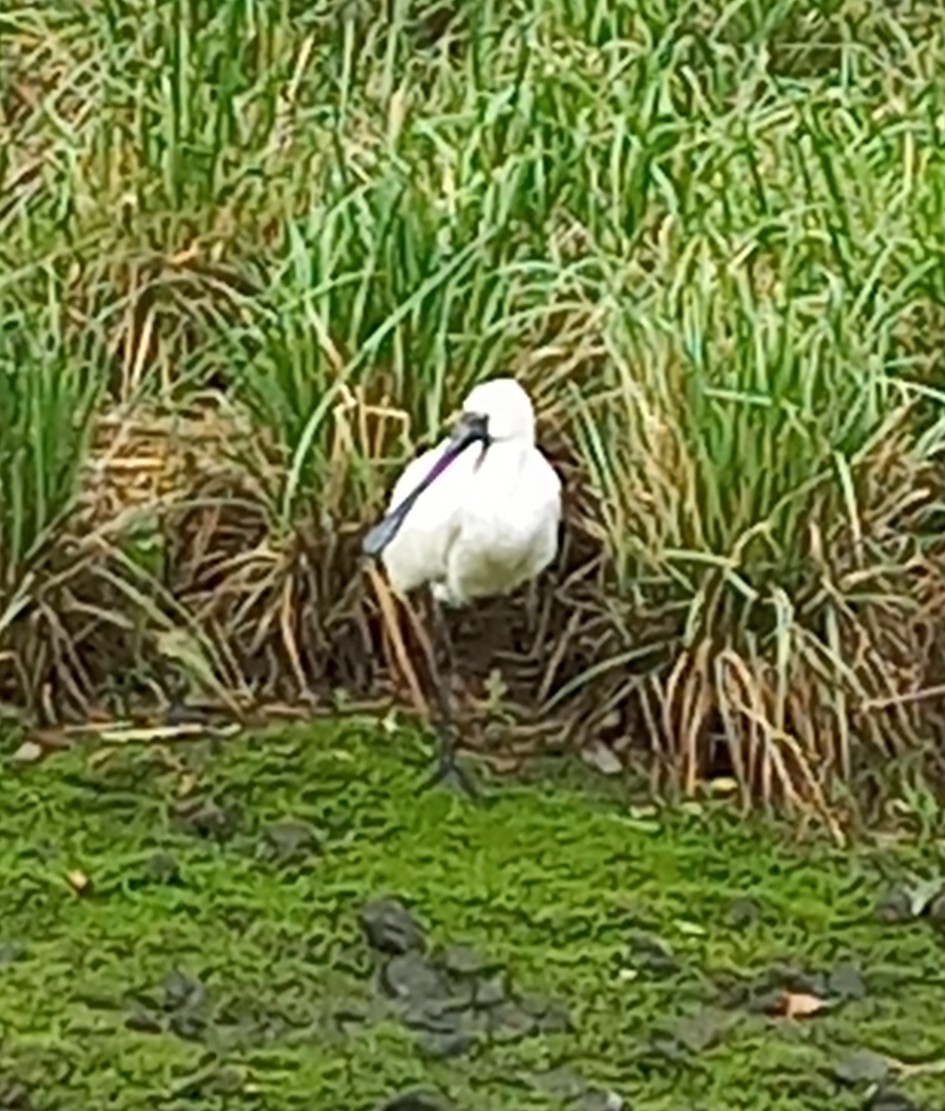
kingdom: Animalia
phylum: Chordata
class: Aves
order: Pelecaniformes
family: Threskiornithidae
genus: Platalea
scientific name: Platalea regia
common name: Royal spoonbill
